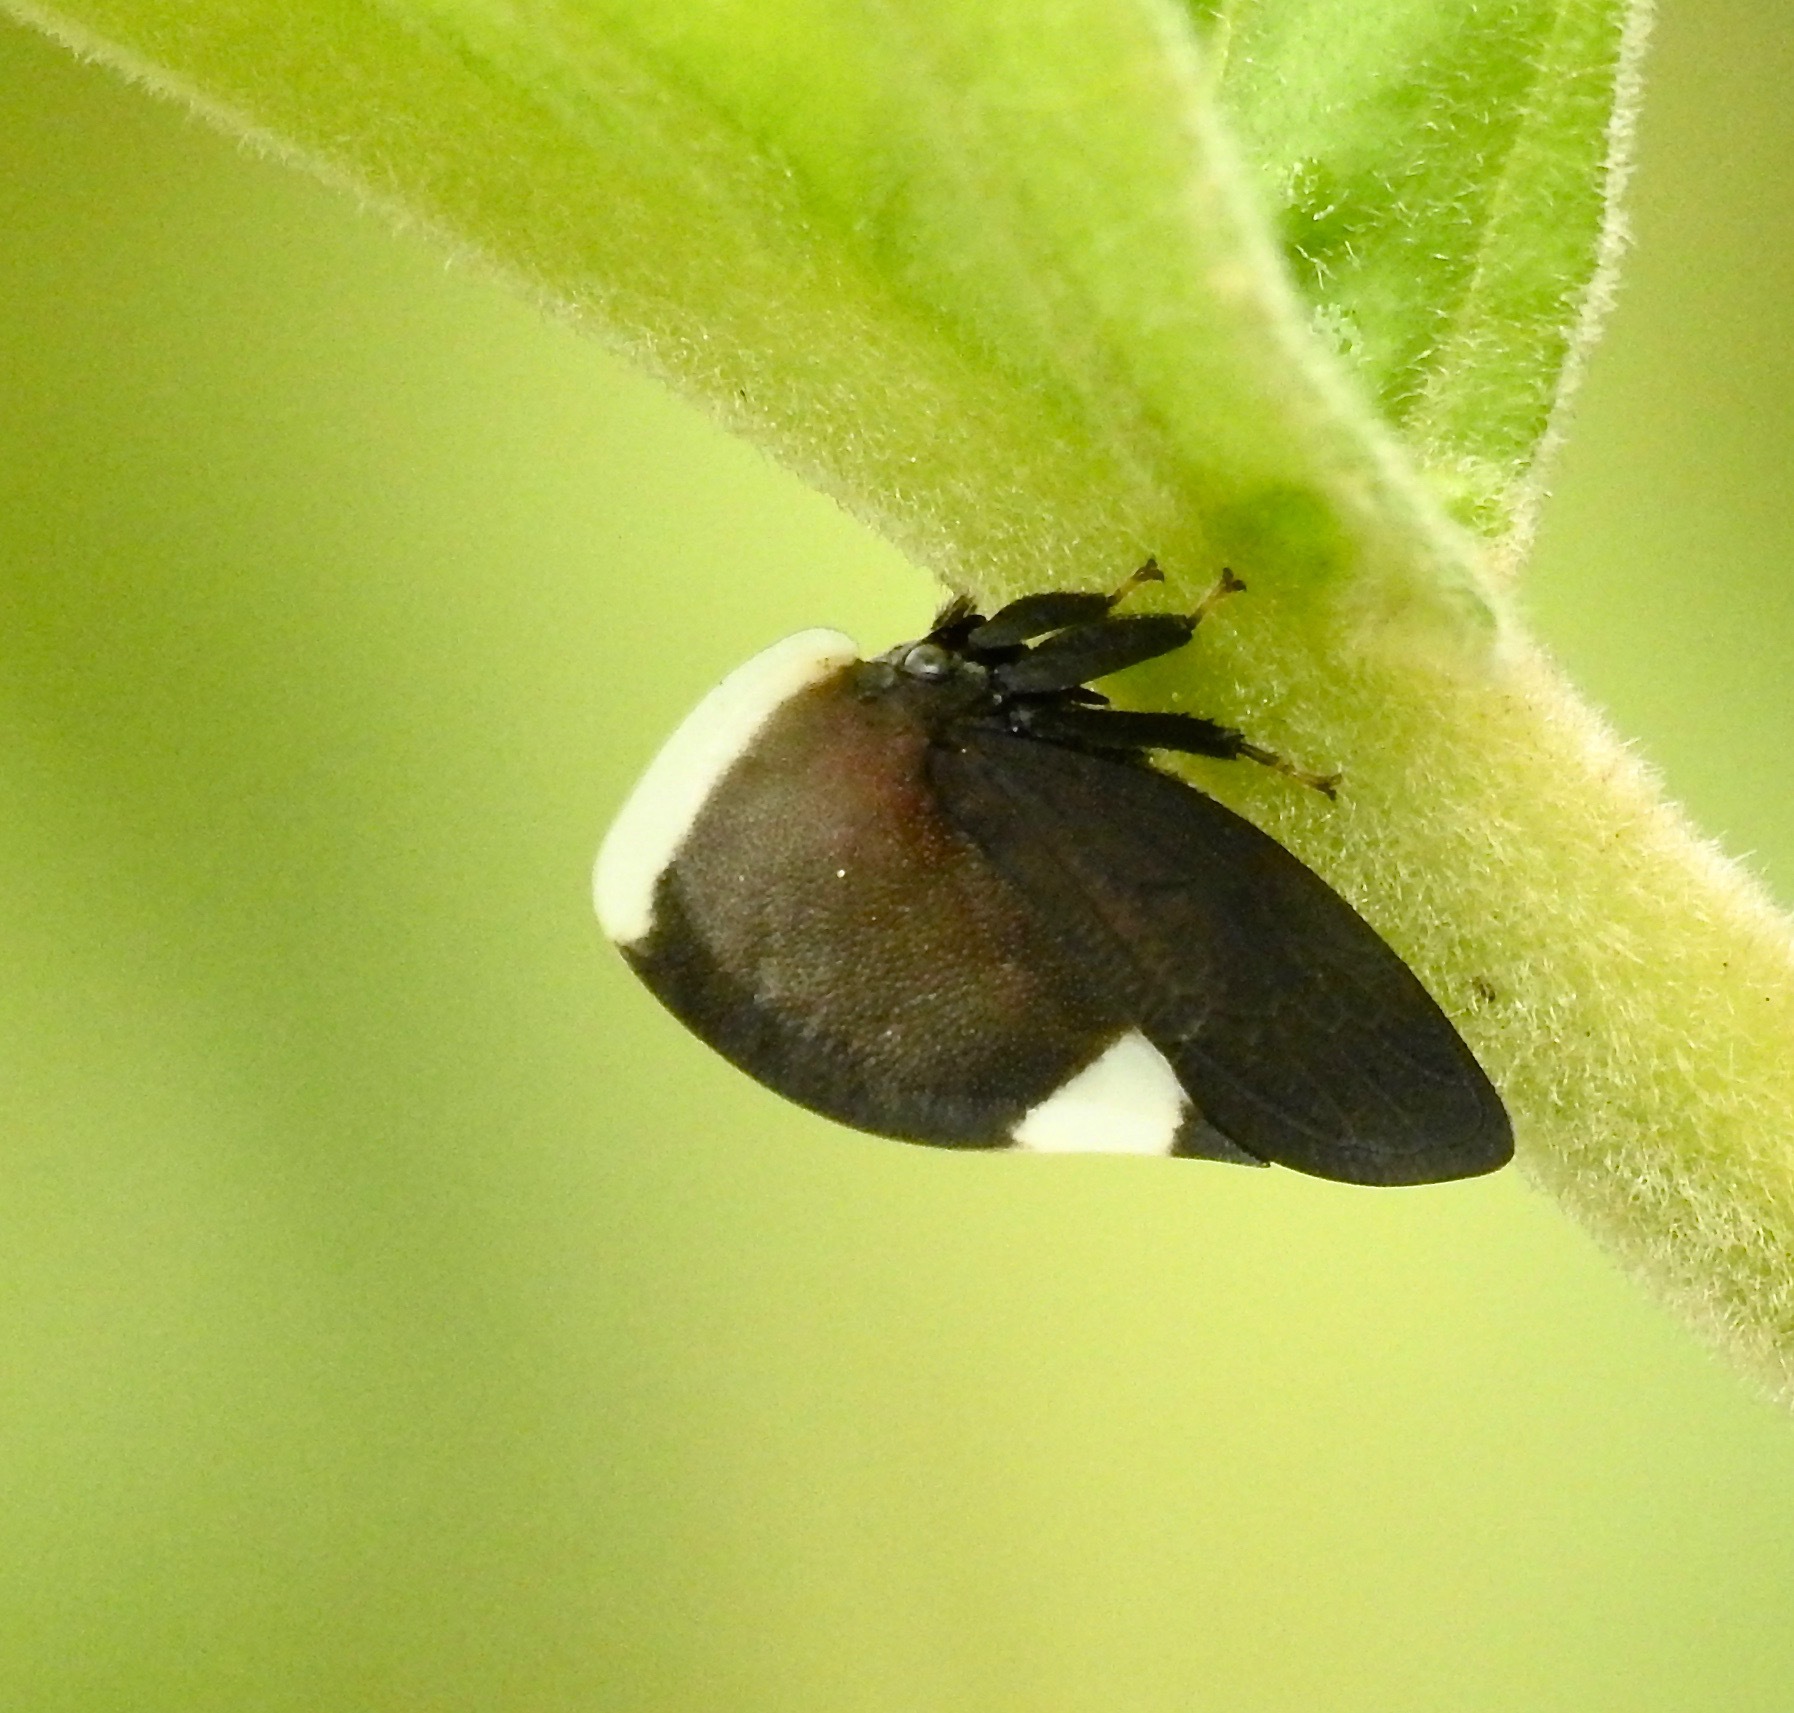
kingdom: Animalia
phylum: Arthropoda
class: Insecta
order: Hemiptera
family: Membracidae
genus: Membracis
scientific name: Membracis dorsata
